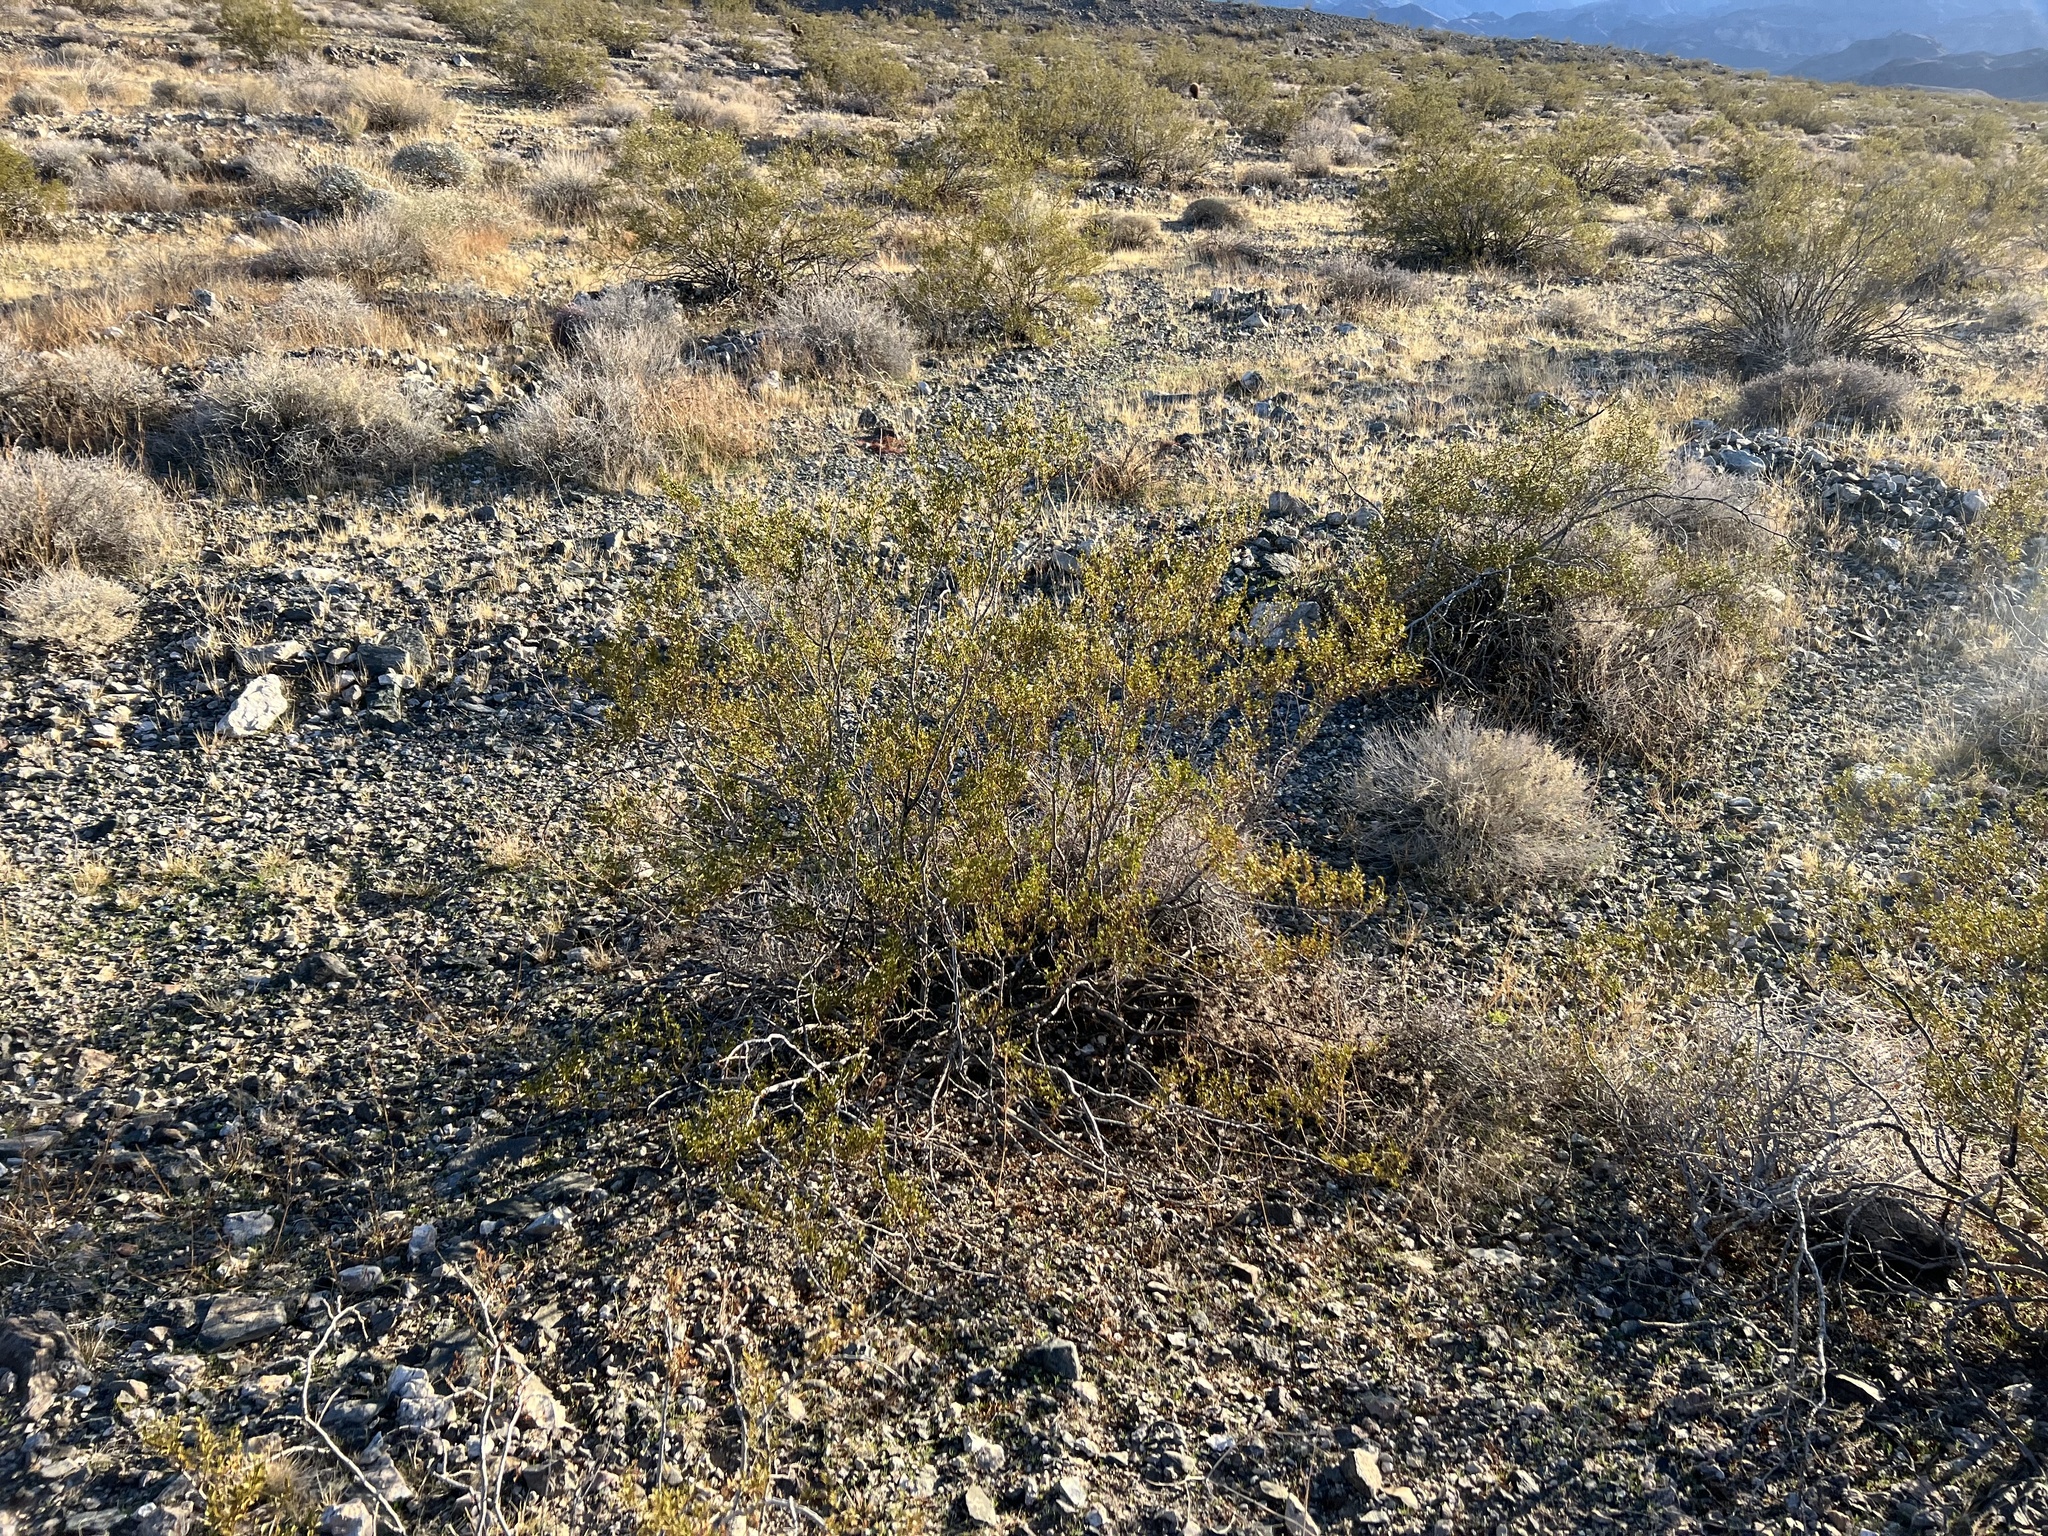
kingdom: Plantae
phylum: Tracheophyta
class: Magnoliopsida
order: Zygophyllales
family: Zygophyllaceae
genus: Larrea
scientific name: Larrea tridentata
